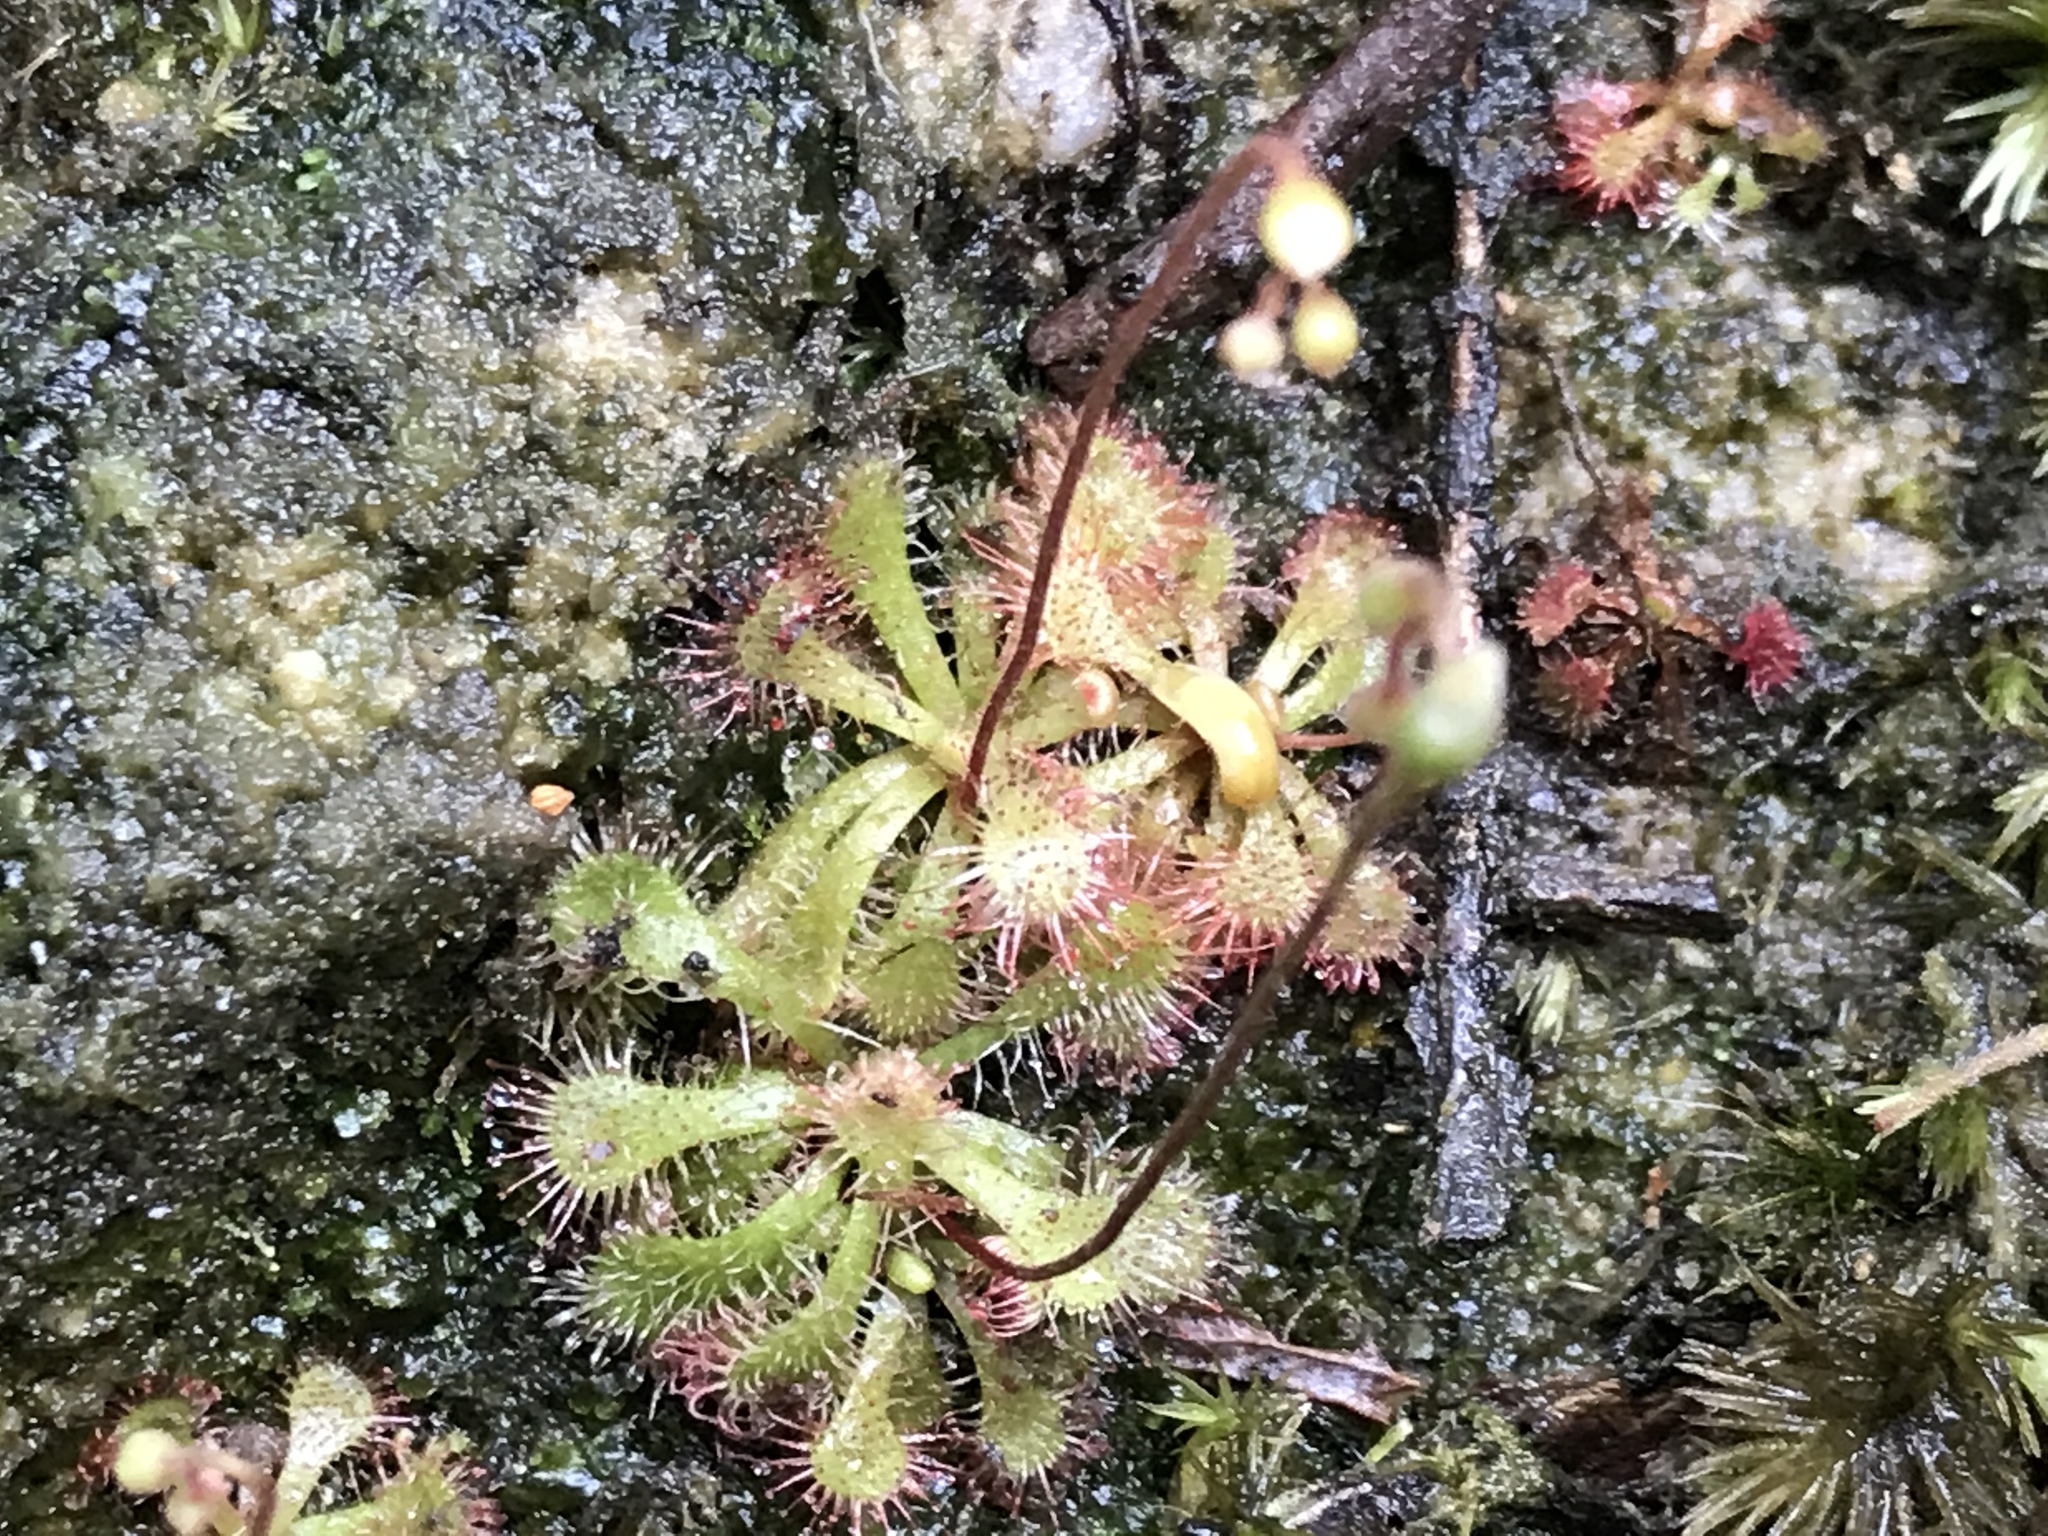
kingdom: Plantae
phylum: Tracheophyta
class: Magnoliopsida
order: Caryophyllales
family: Droseraceae
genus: Drosera
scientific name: Drosera spatulata
